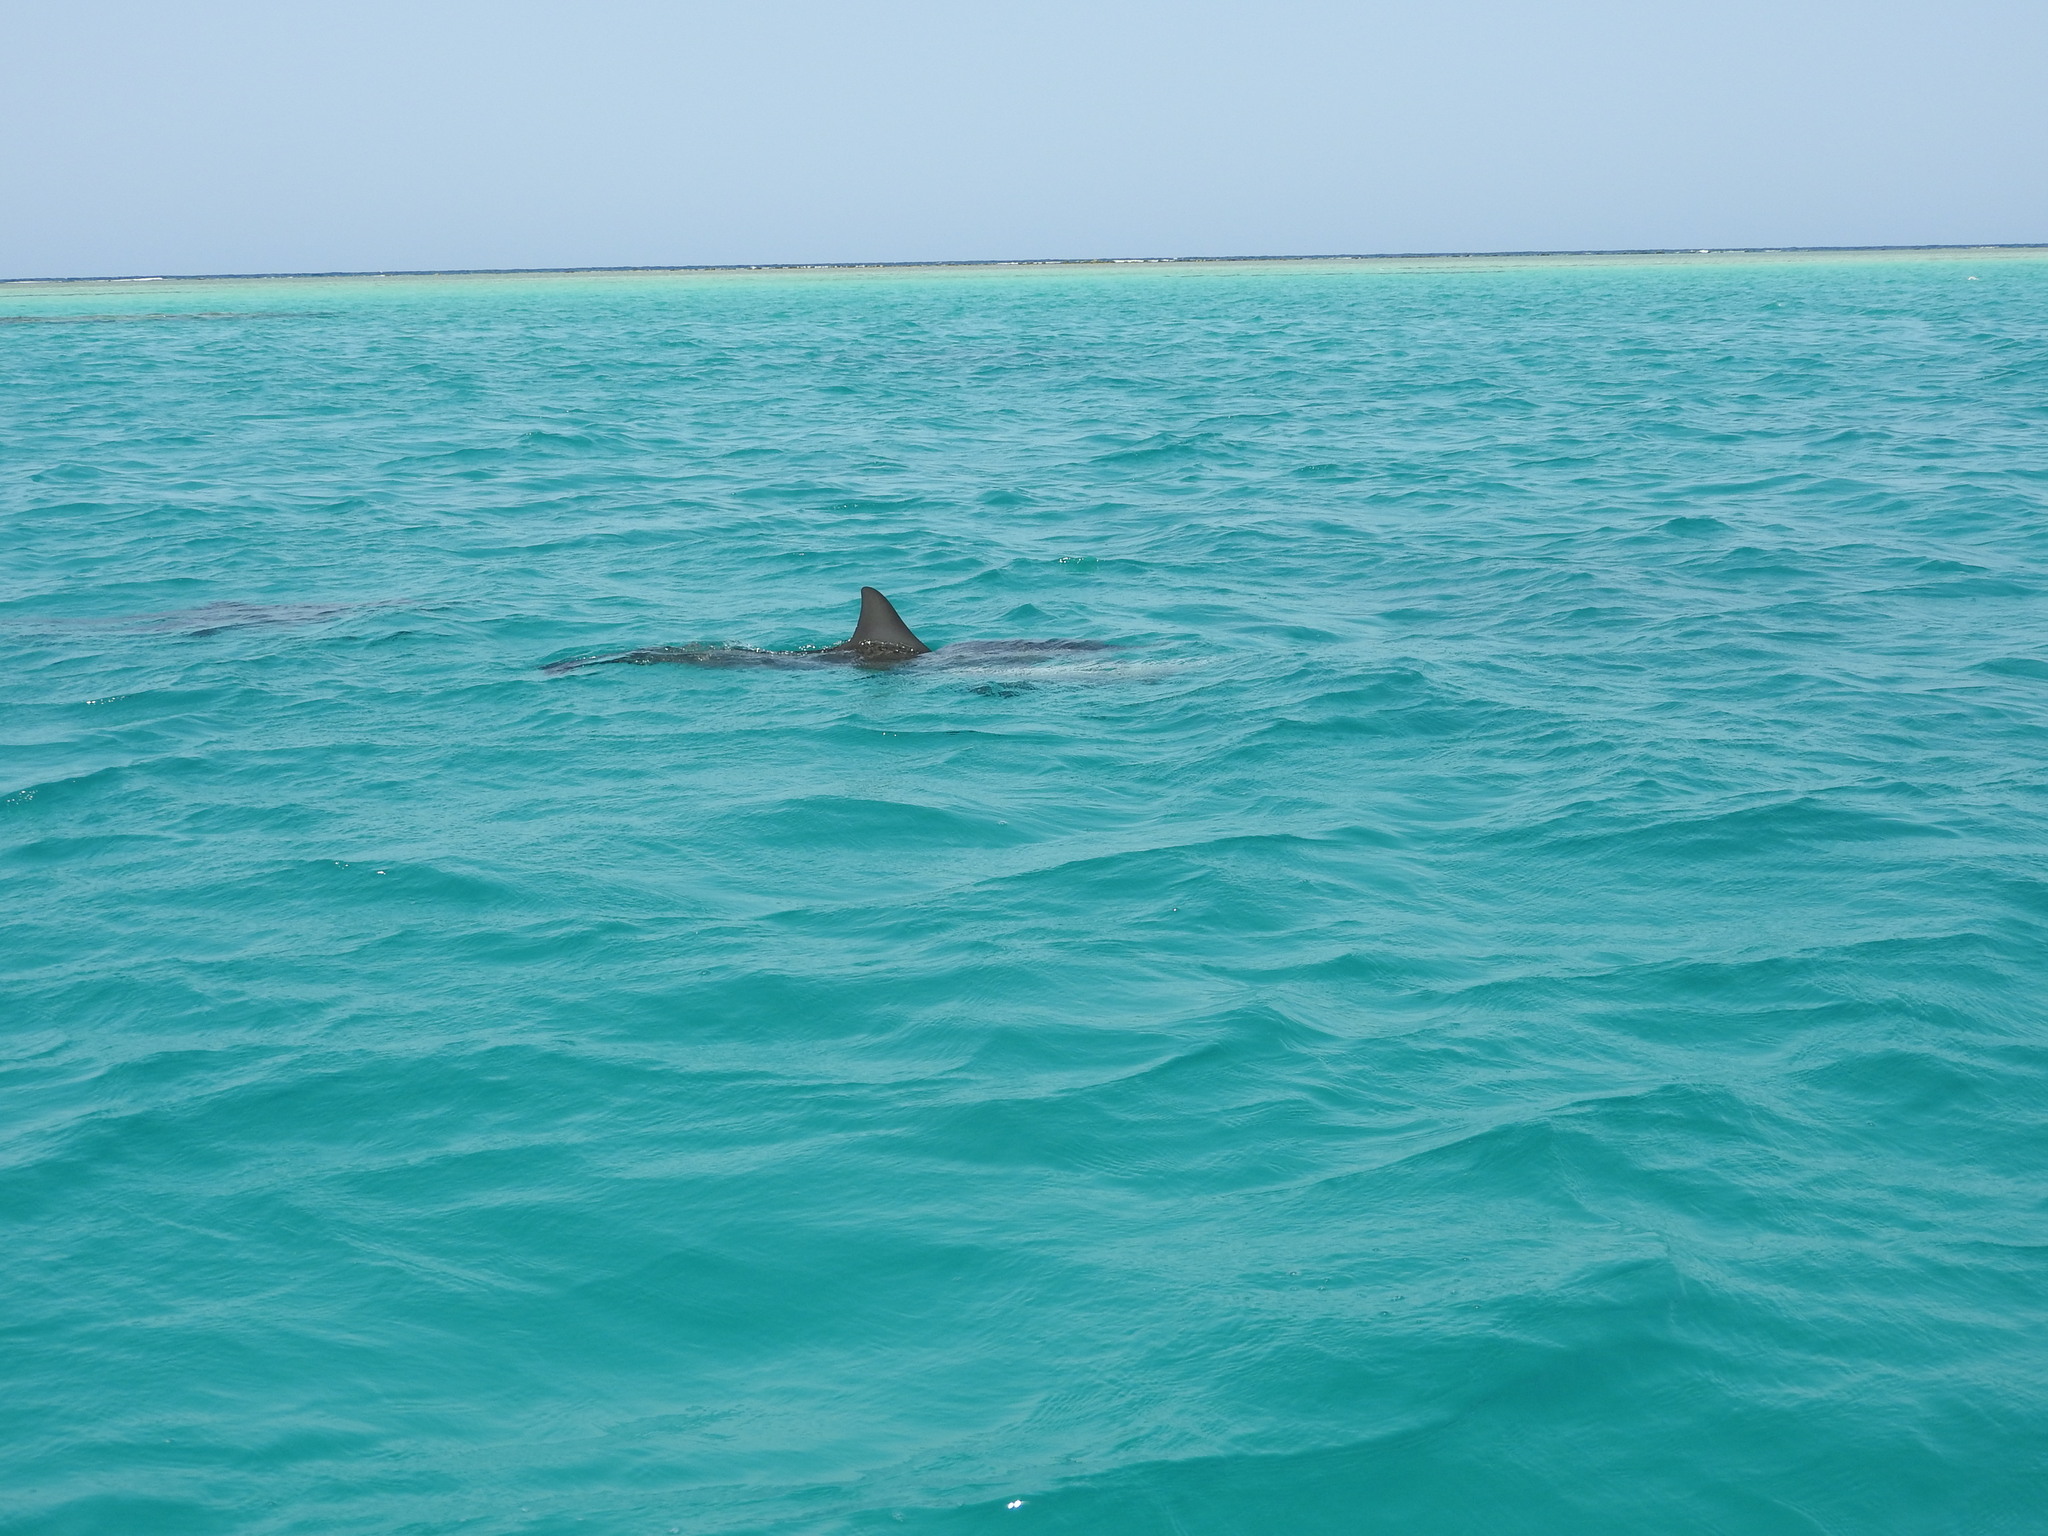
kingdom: Animalia
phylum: Chordata
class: Mammalia
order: Cetacea
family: Delphinidae
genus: Stenella
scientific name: Stenella longirostris
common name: Spinner dolphin
